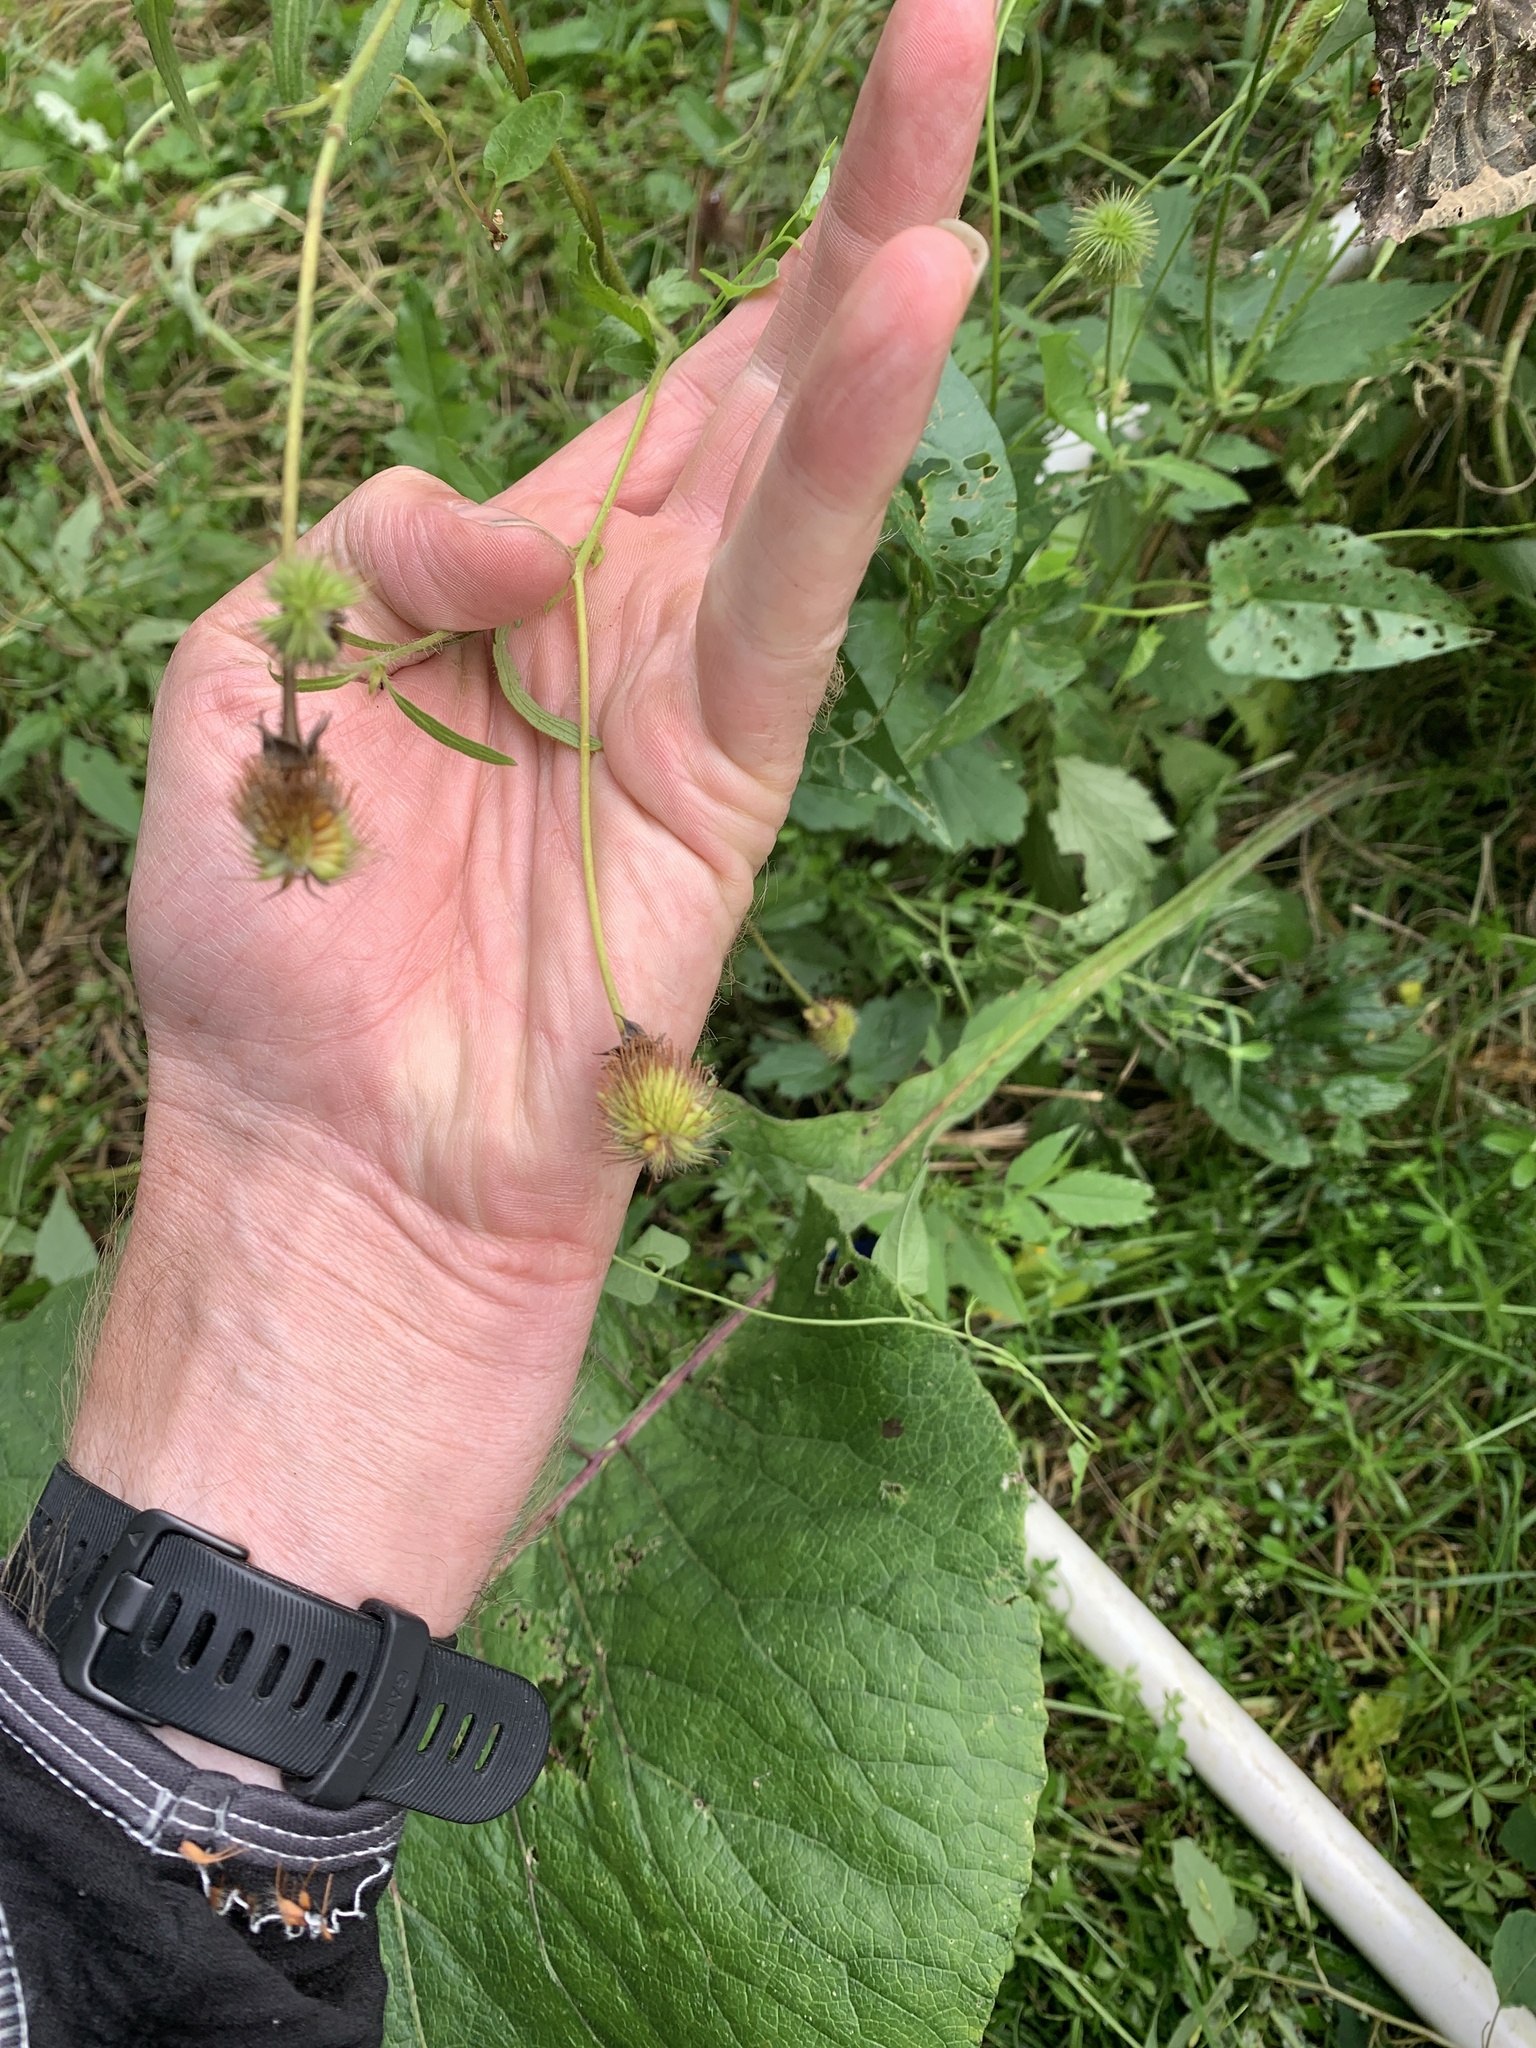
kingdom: Plantae
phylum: Tracheophyta
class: Magnoliopsida
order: Rosales
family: Rosaceae
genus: Geum
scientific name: Geum aleppicum
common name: Yellow avens
